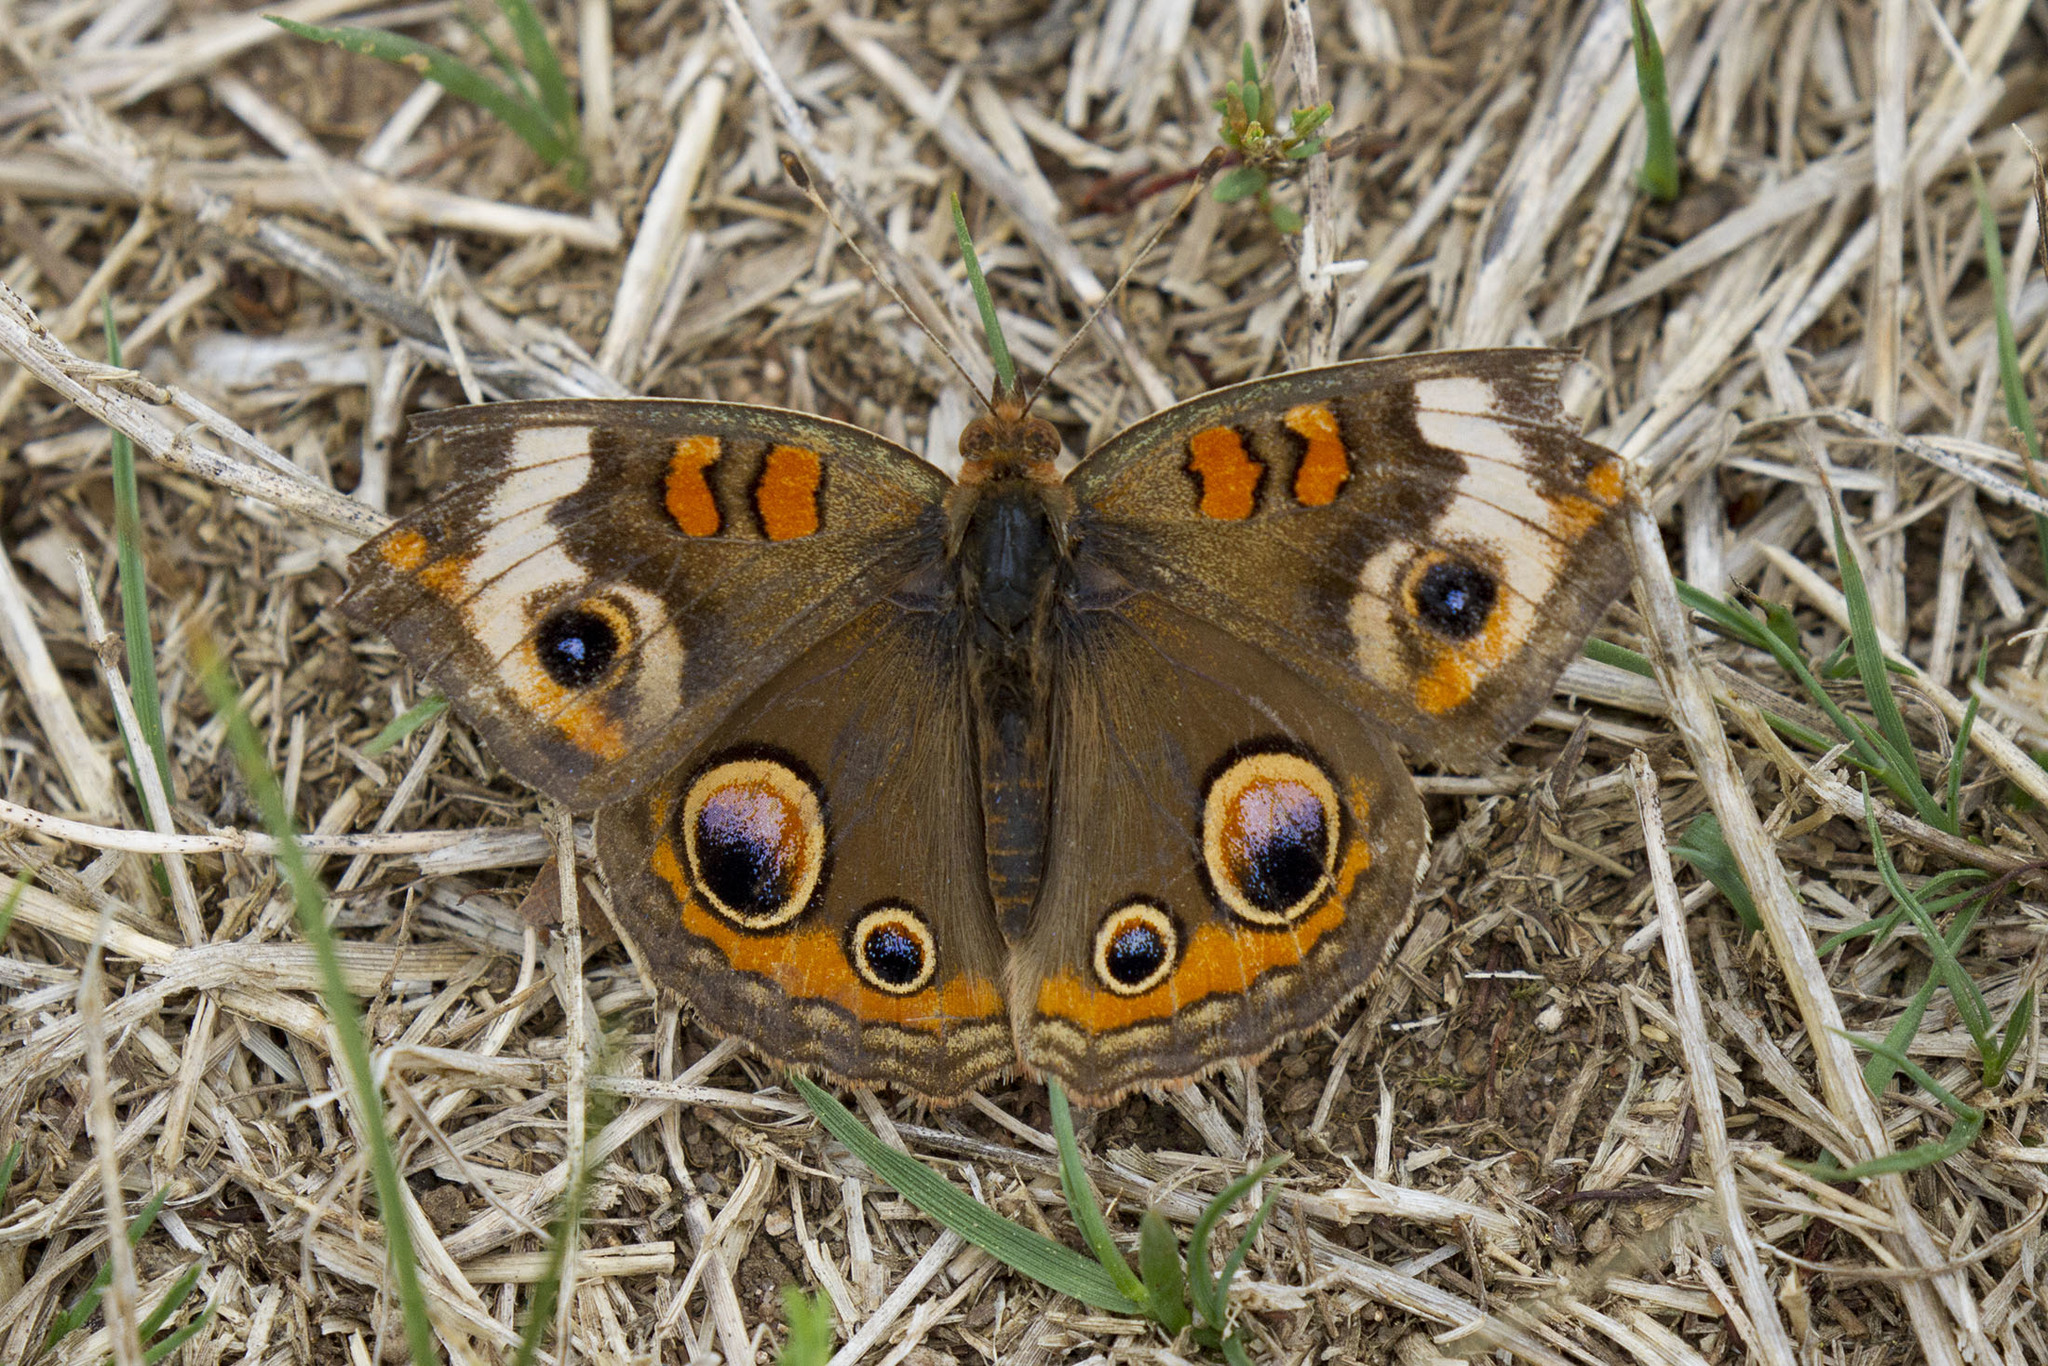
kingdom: Animalia
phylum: Arthropoda
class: Insecta
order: Lepidoptera
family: Nymphalidae
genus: Junonia
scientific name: Junonia coenia
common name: Common buckeye
